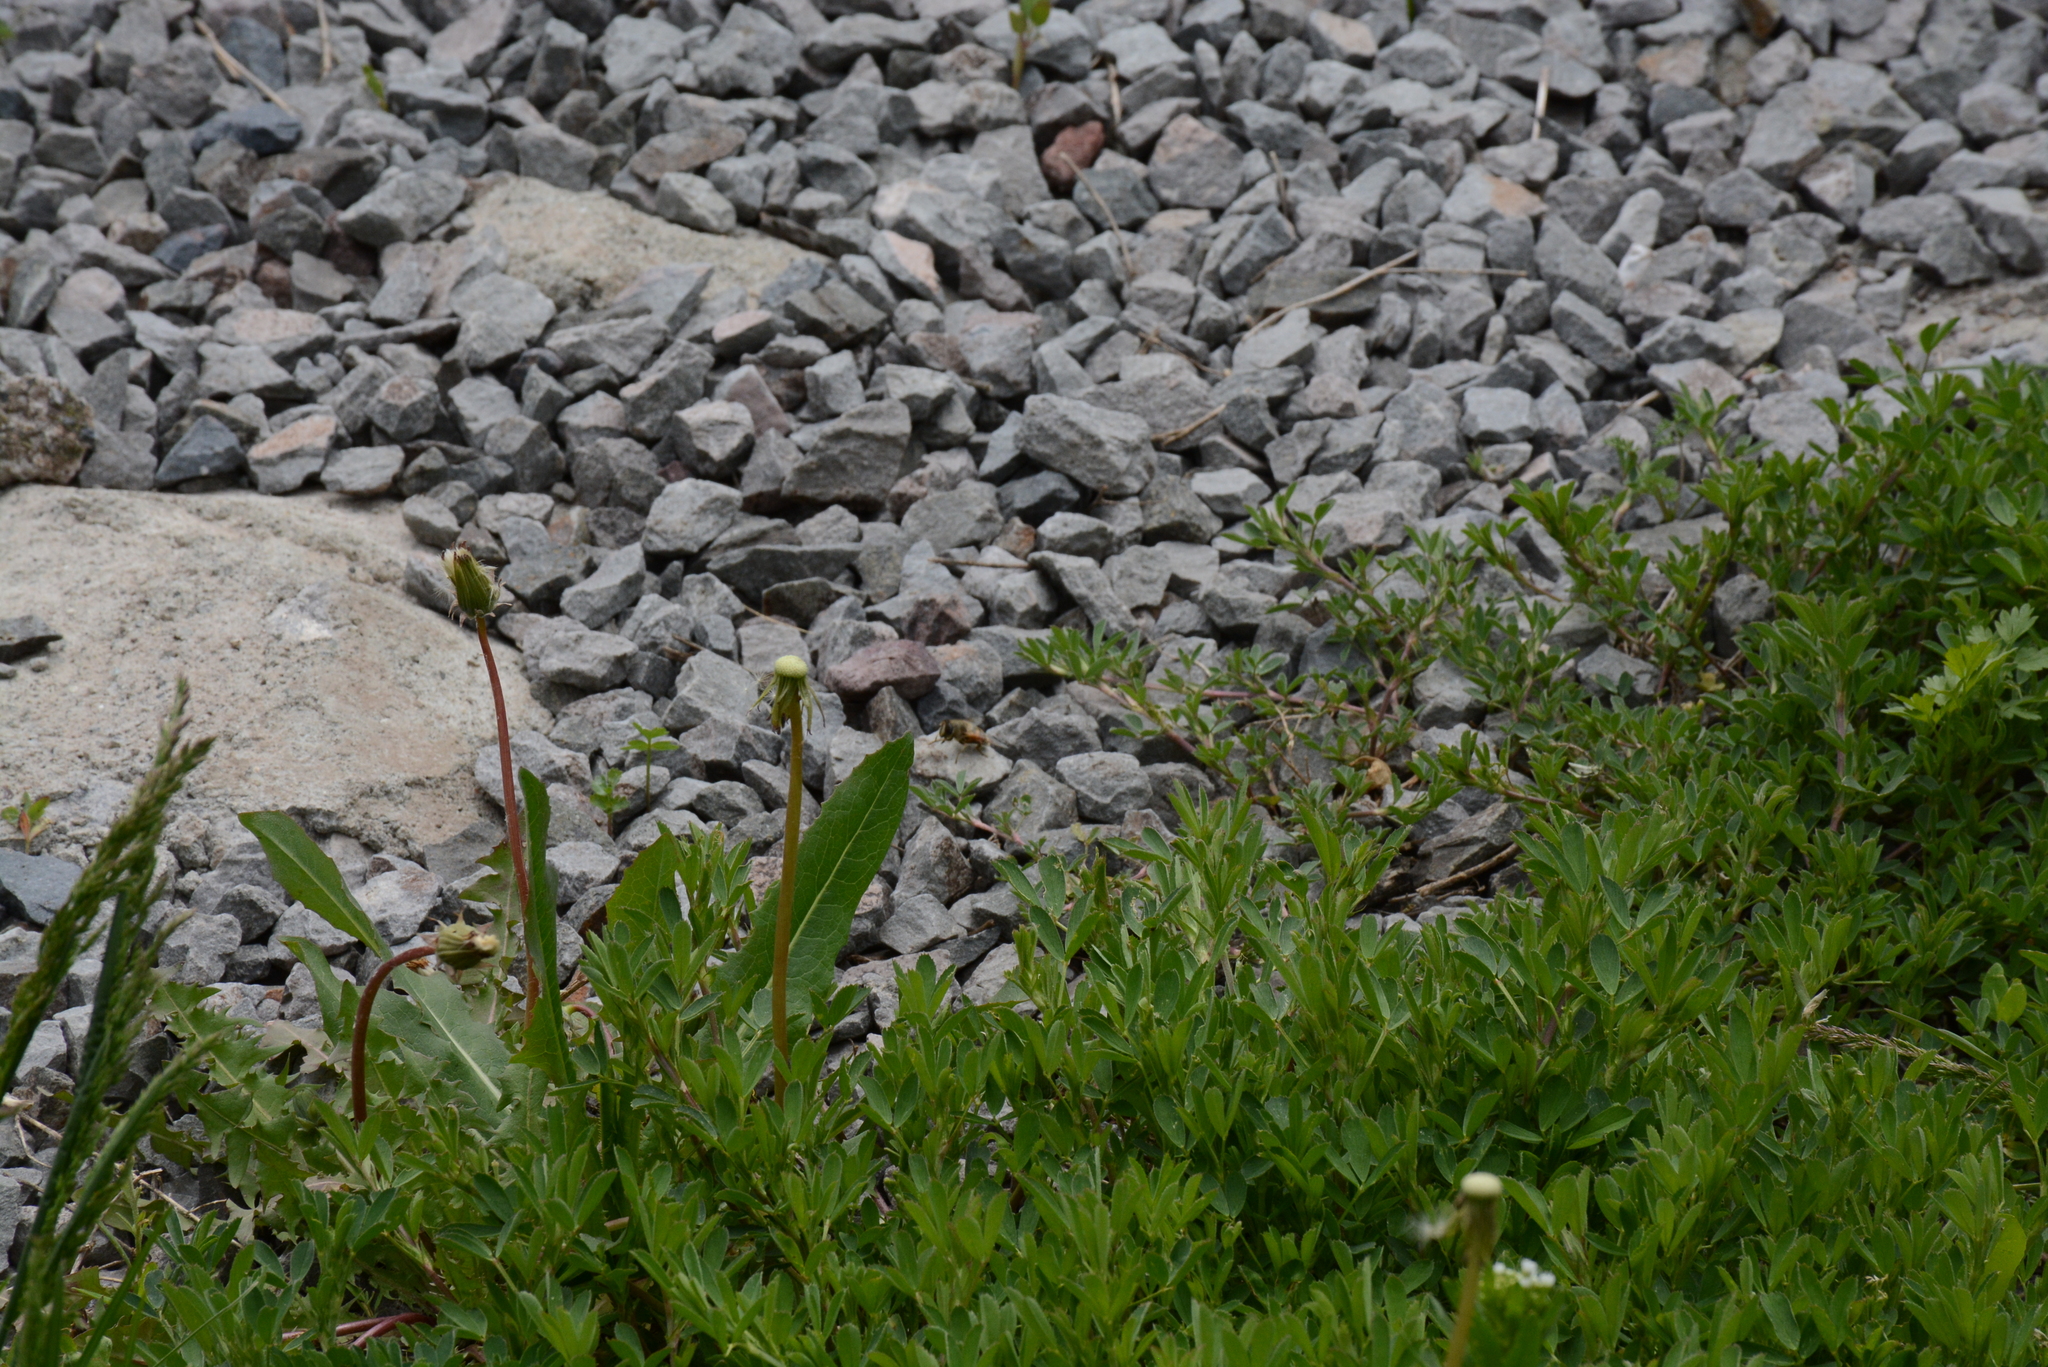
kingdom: Animalia
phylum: Arthropoda
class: Insecta
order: Diptera
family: Syrphidae
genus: Eristalis
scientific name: Eristalis tenax
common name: Drone fly
